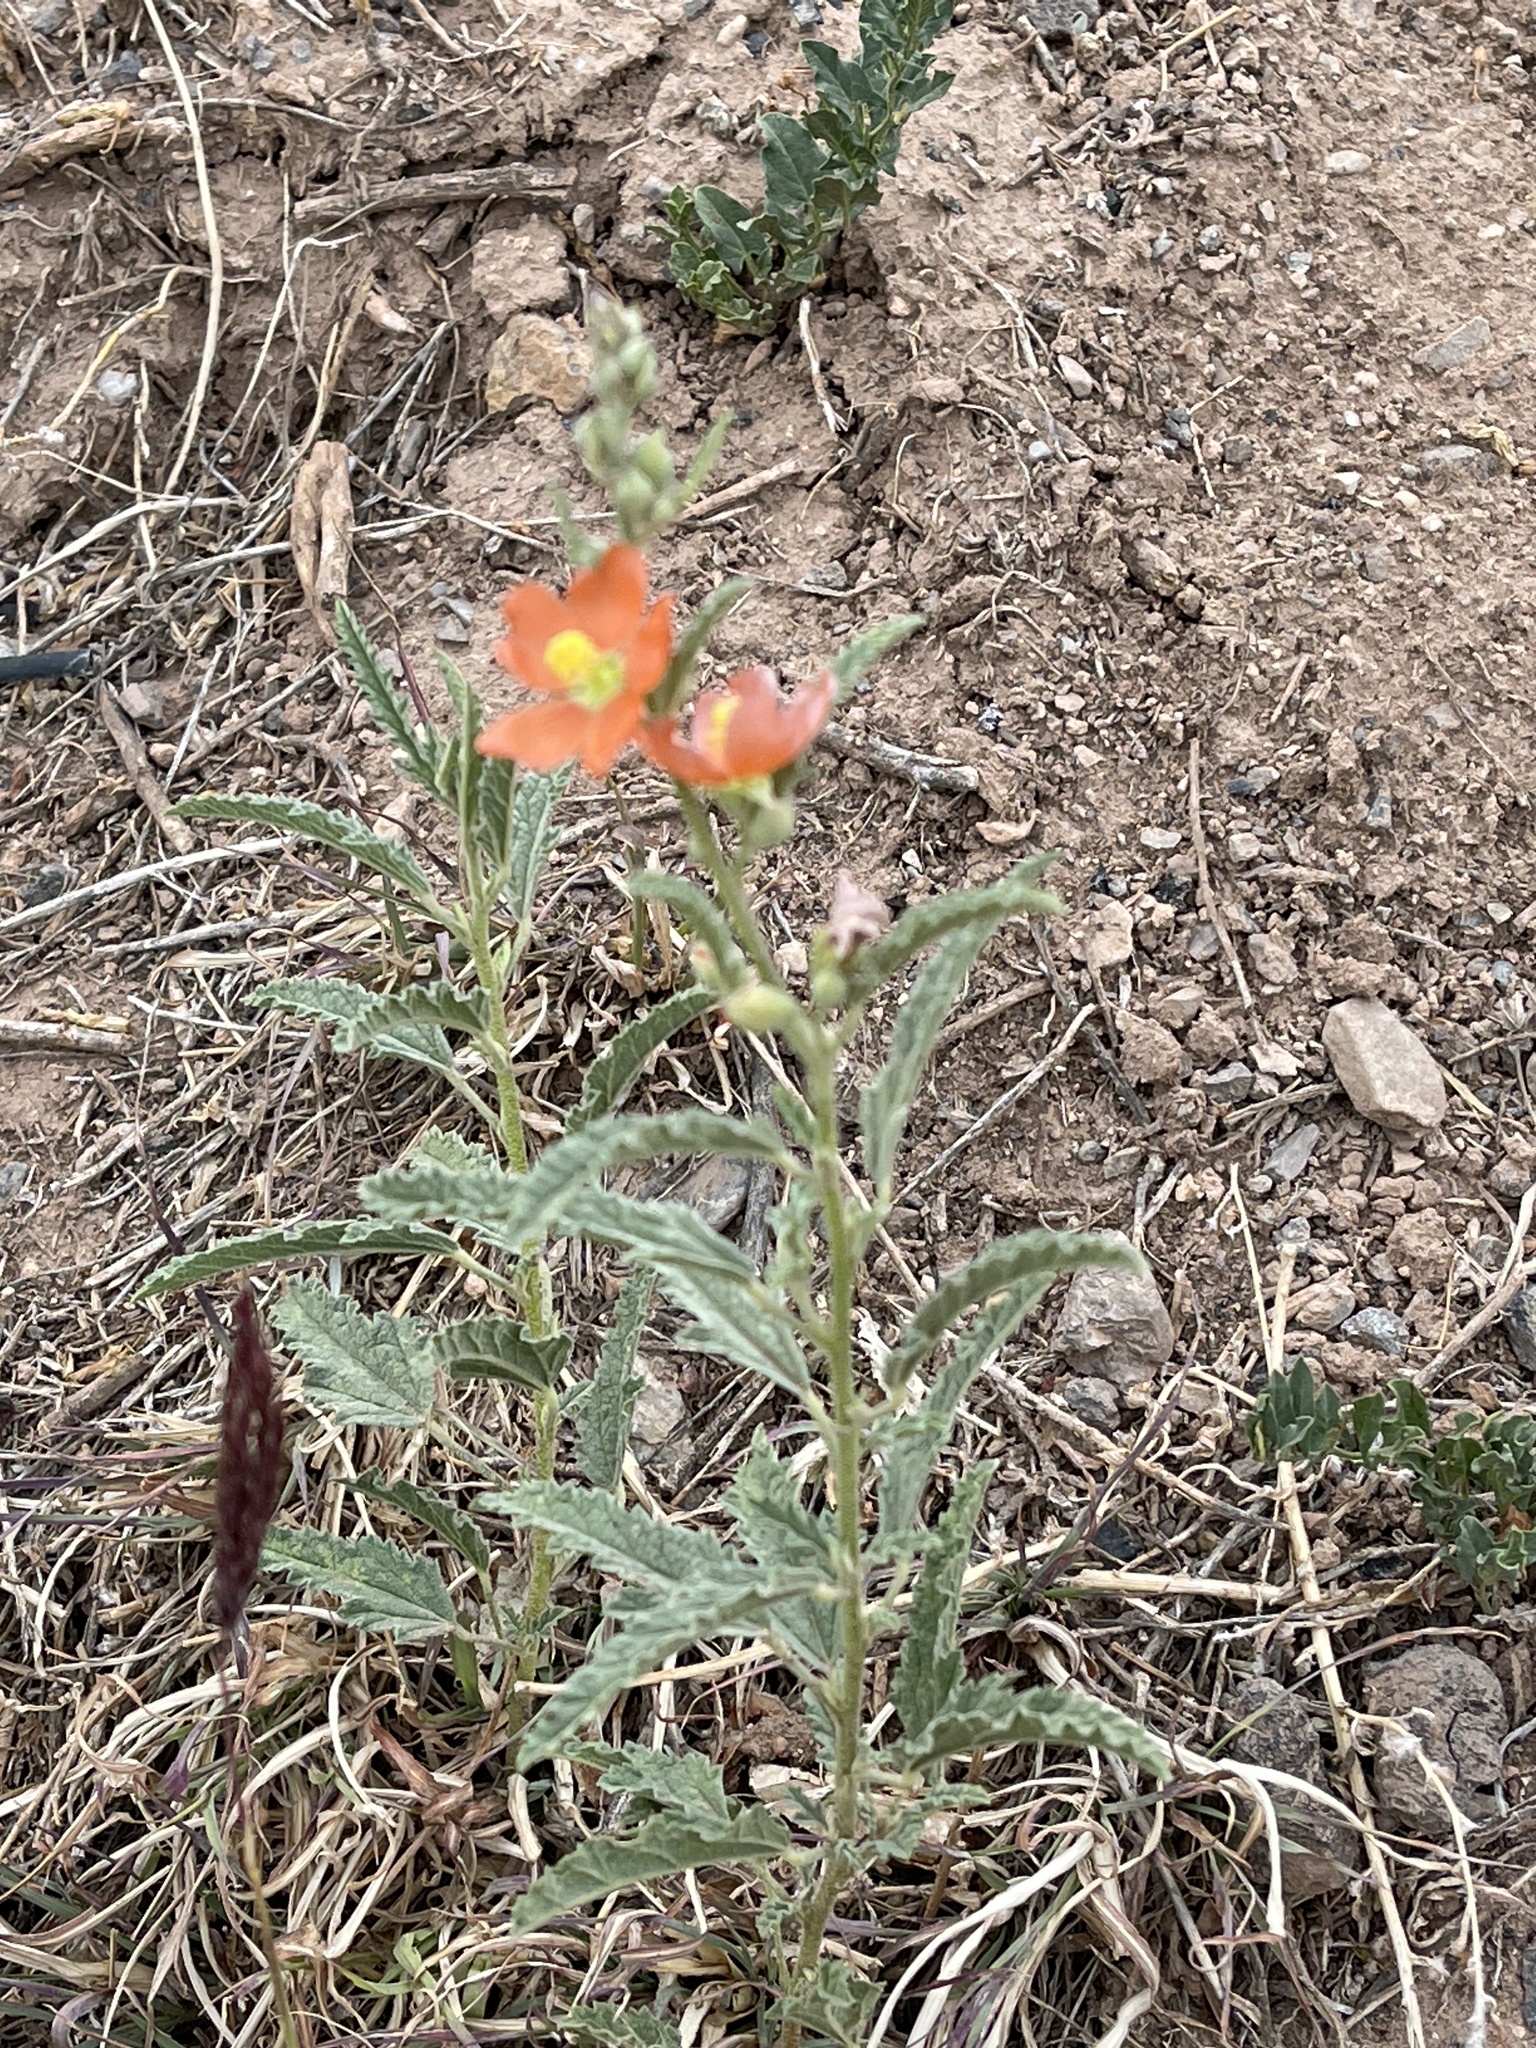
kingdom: Plantae
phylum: Tracheophyta
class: Magnoliopsida
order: Malvales
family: Malvaceae
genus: Sphaeralcea
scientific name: Sphaeralcea angustifolia
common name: Copper globe-mallow
